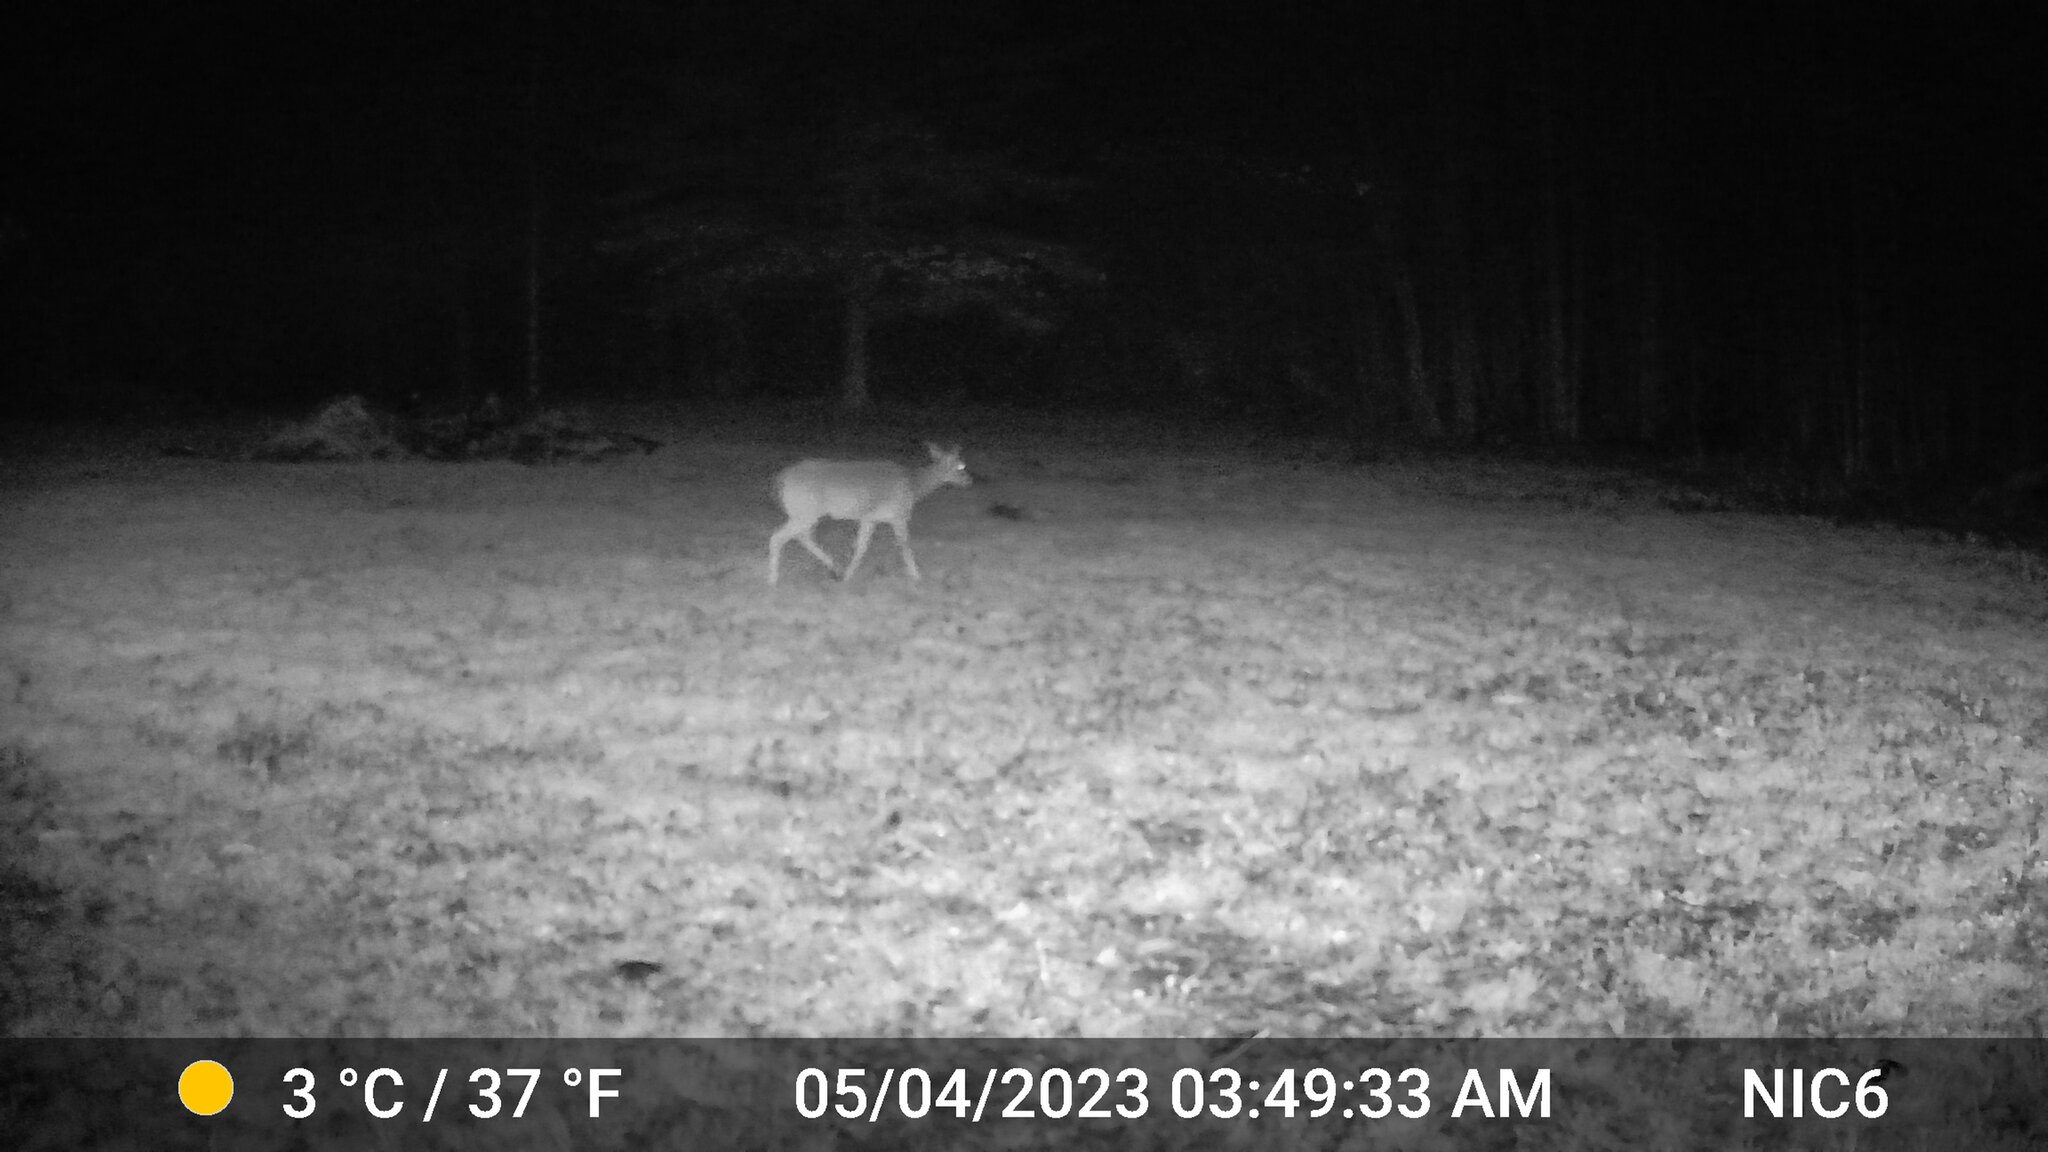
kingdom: Animalia
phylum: Chordata
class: Mammalia
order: Artiodactyla
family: Cervidae
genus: Odocoileus
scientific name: Odocoileus virginianus
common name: White-tailed deer
